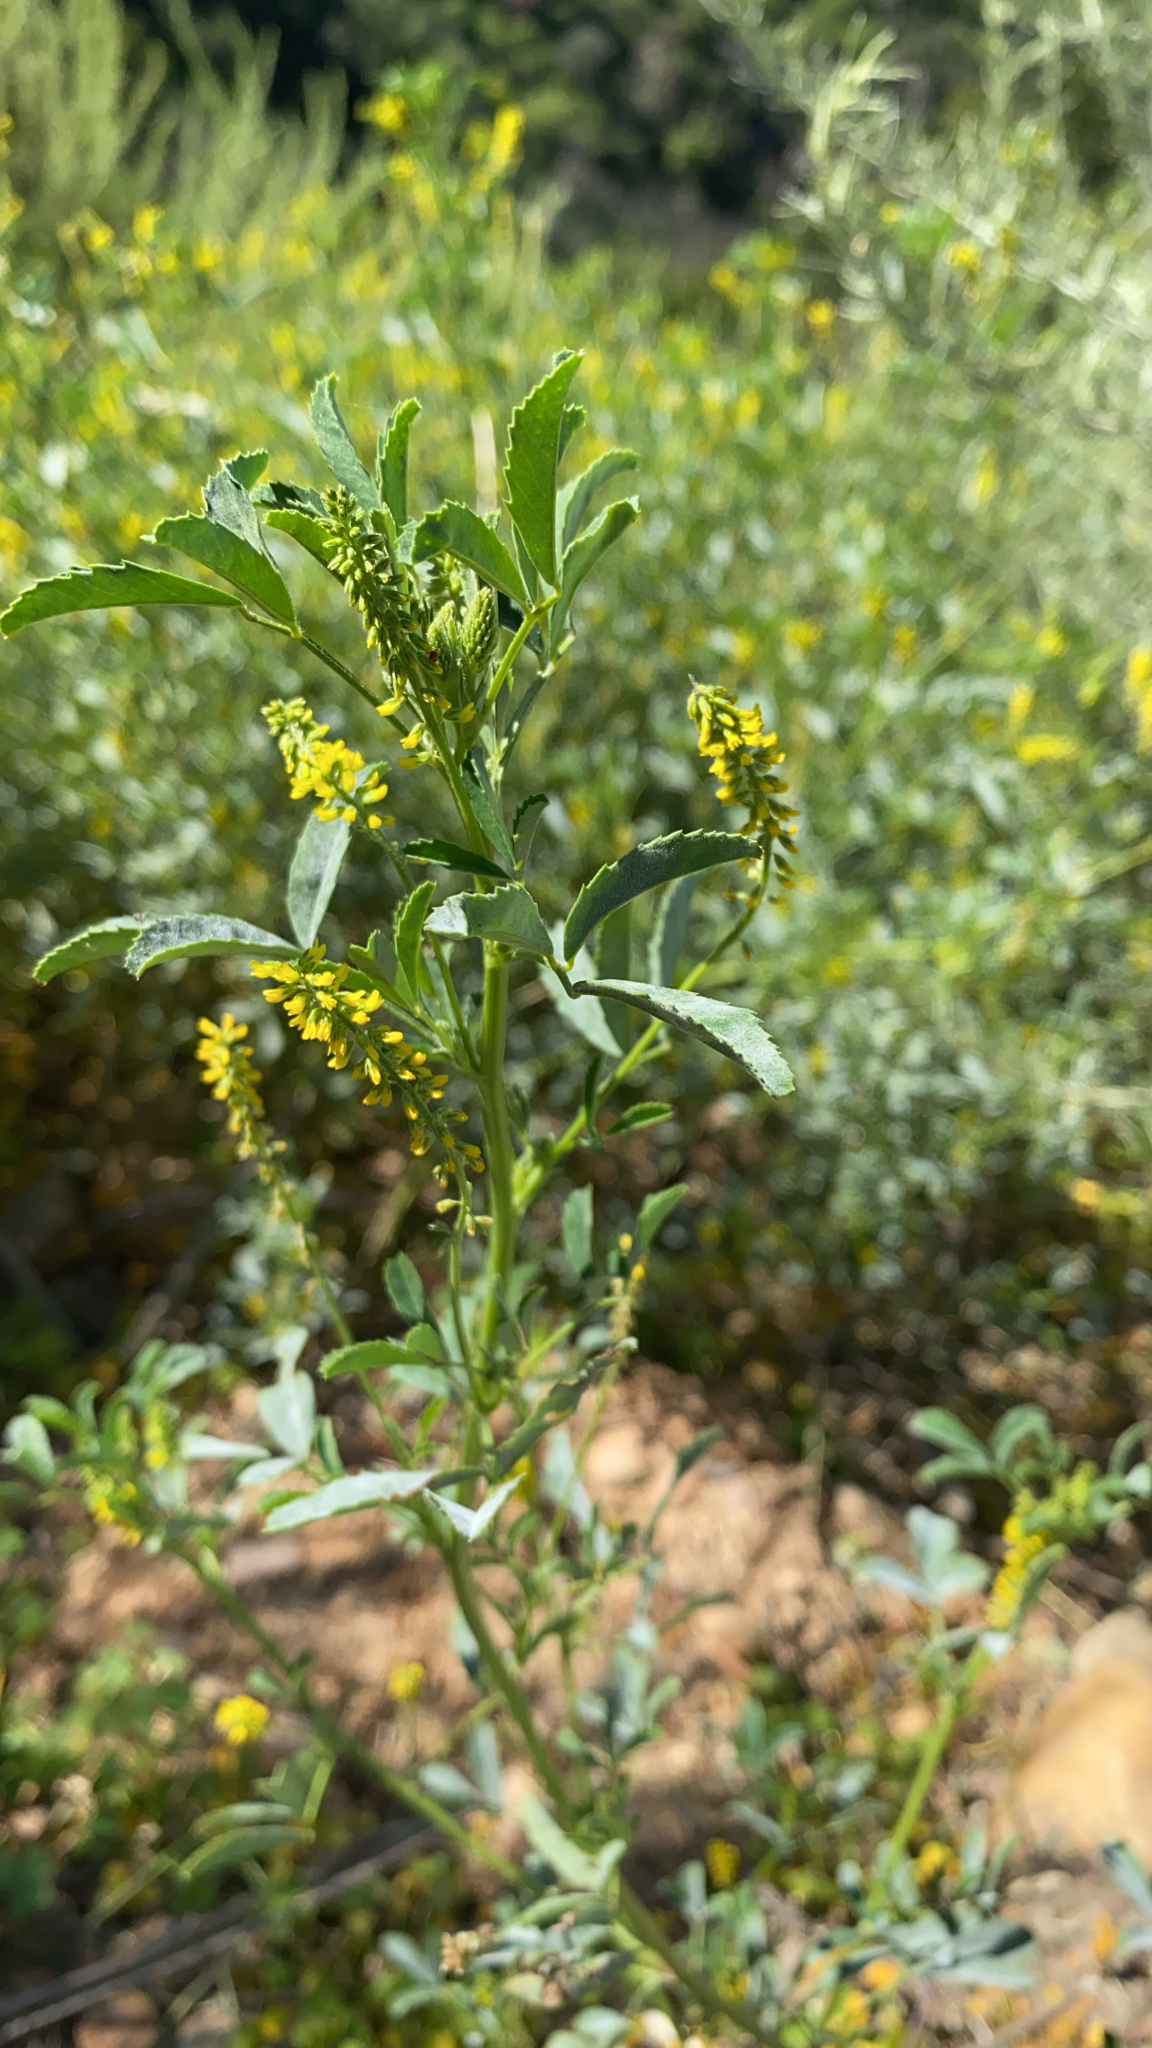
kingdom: Plantae
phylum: Tracheophyta
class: Magnoliopsida
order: Fabales
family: Fabaceae
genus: Melilotus
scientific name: Melilotus indicus
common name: Small melilot
